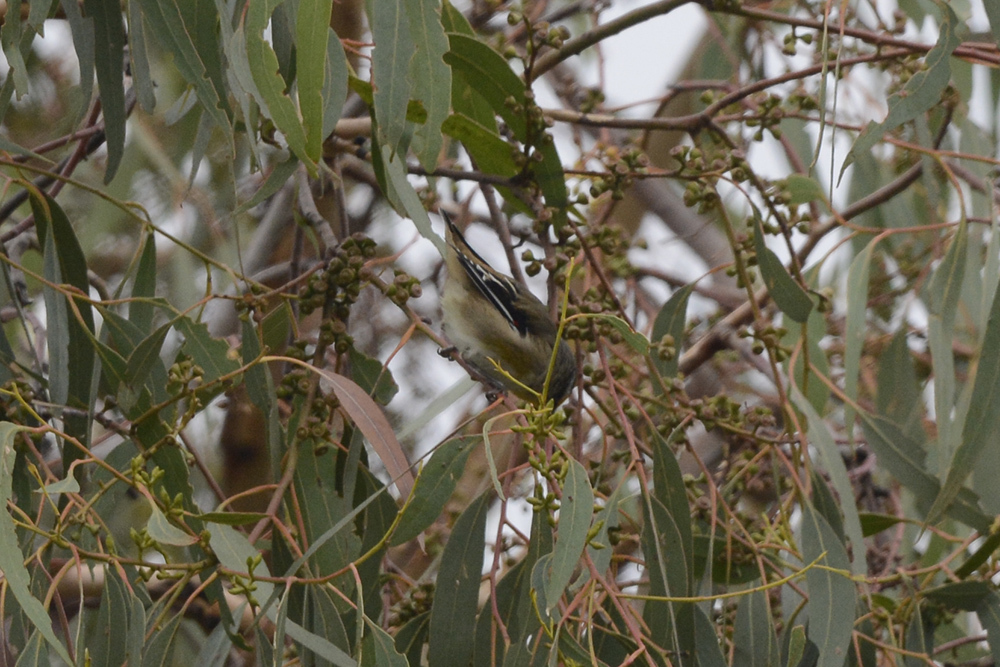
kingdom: Animalia
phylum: Chordata
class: Aves
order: Passeriformes
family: Pardalotidae
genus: Pardalotus
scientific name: Pardalotus striatus
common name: Striated pardalote
